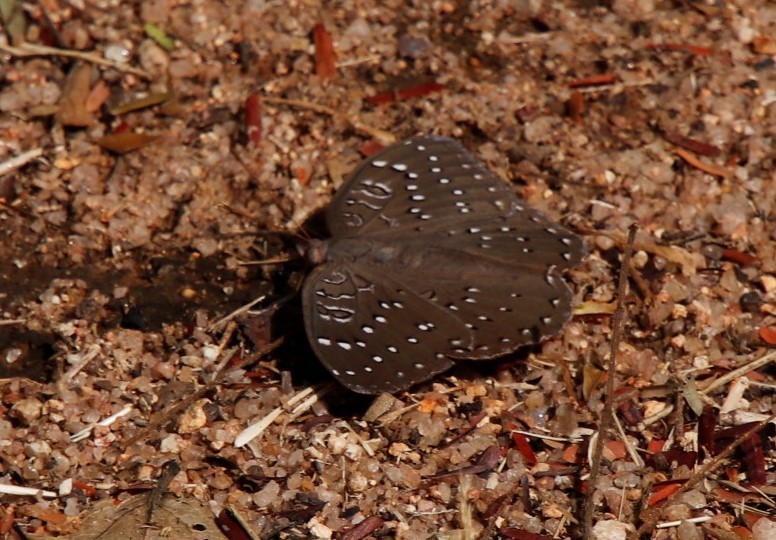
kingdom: Animalia
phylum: Arthropoda
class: Insecta
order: Lepidoptera
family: Nymphalidae
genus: Hamanumida
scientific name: Hamanumida daedalus
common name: Guinea-fowl butterfly
